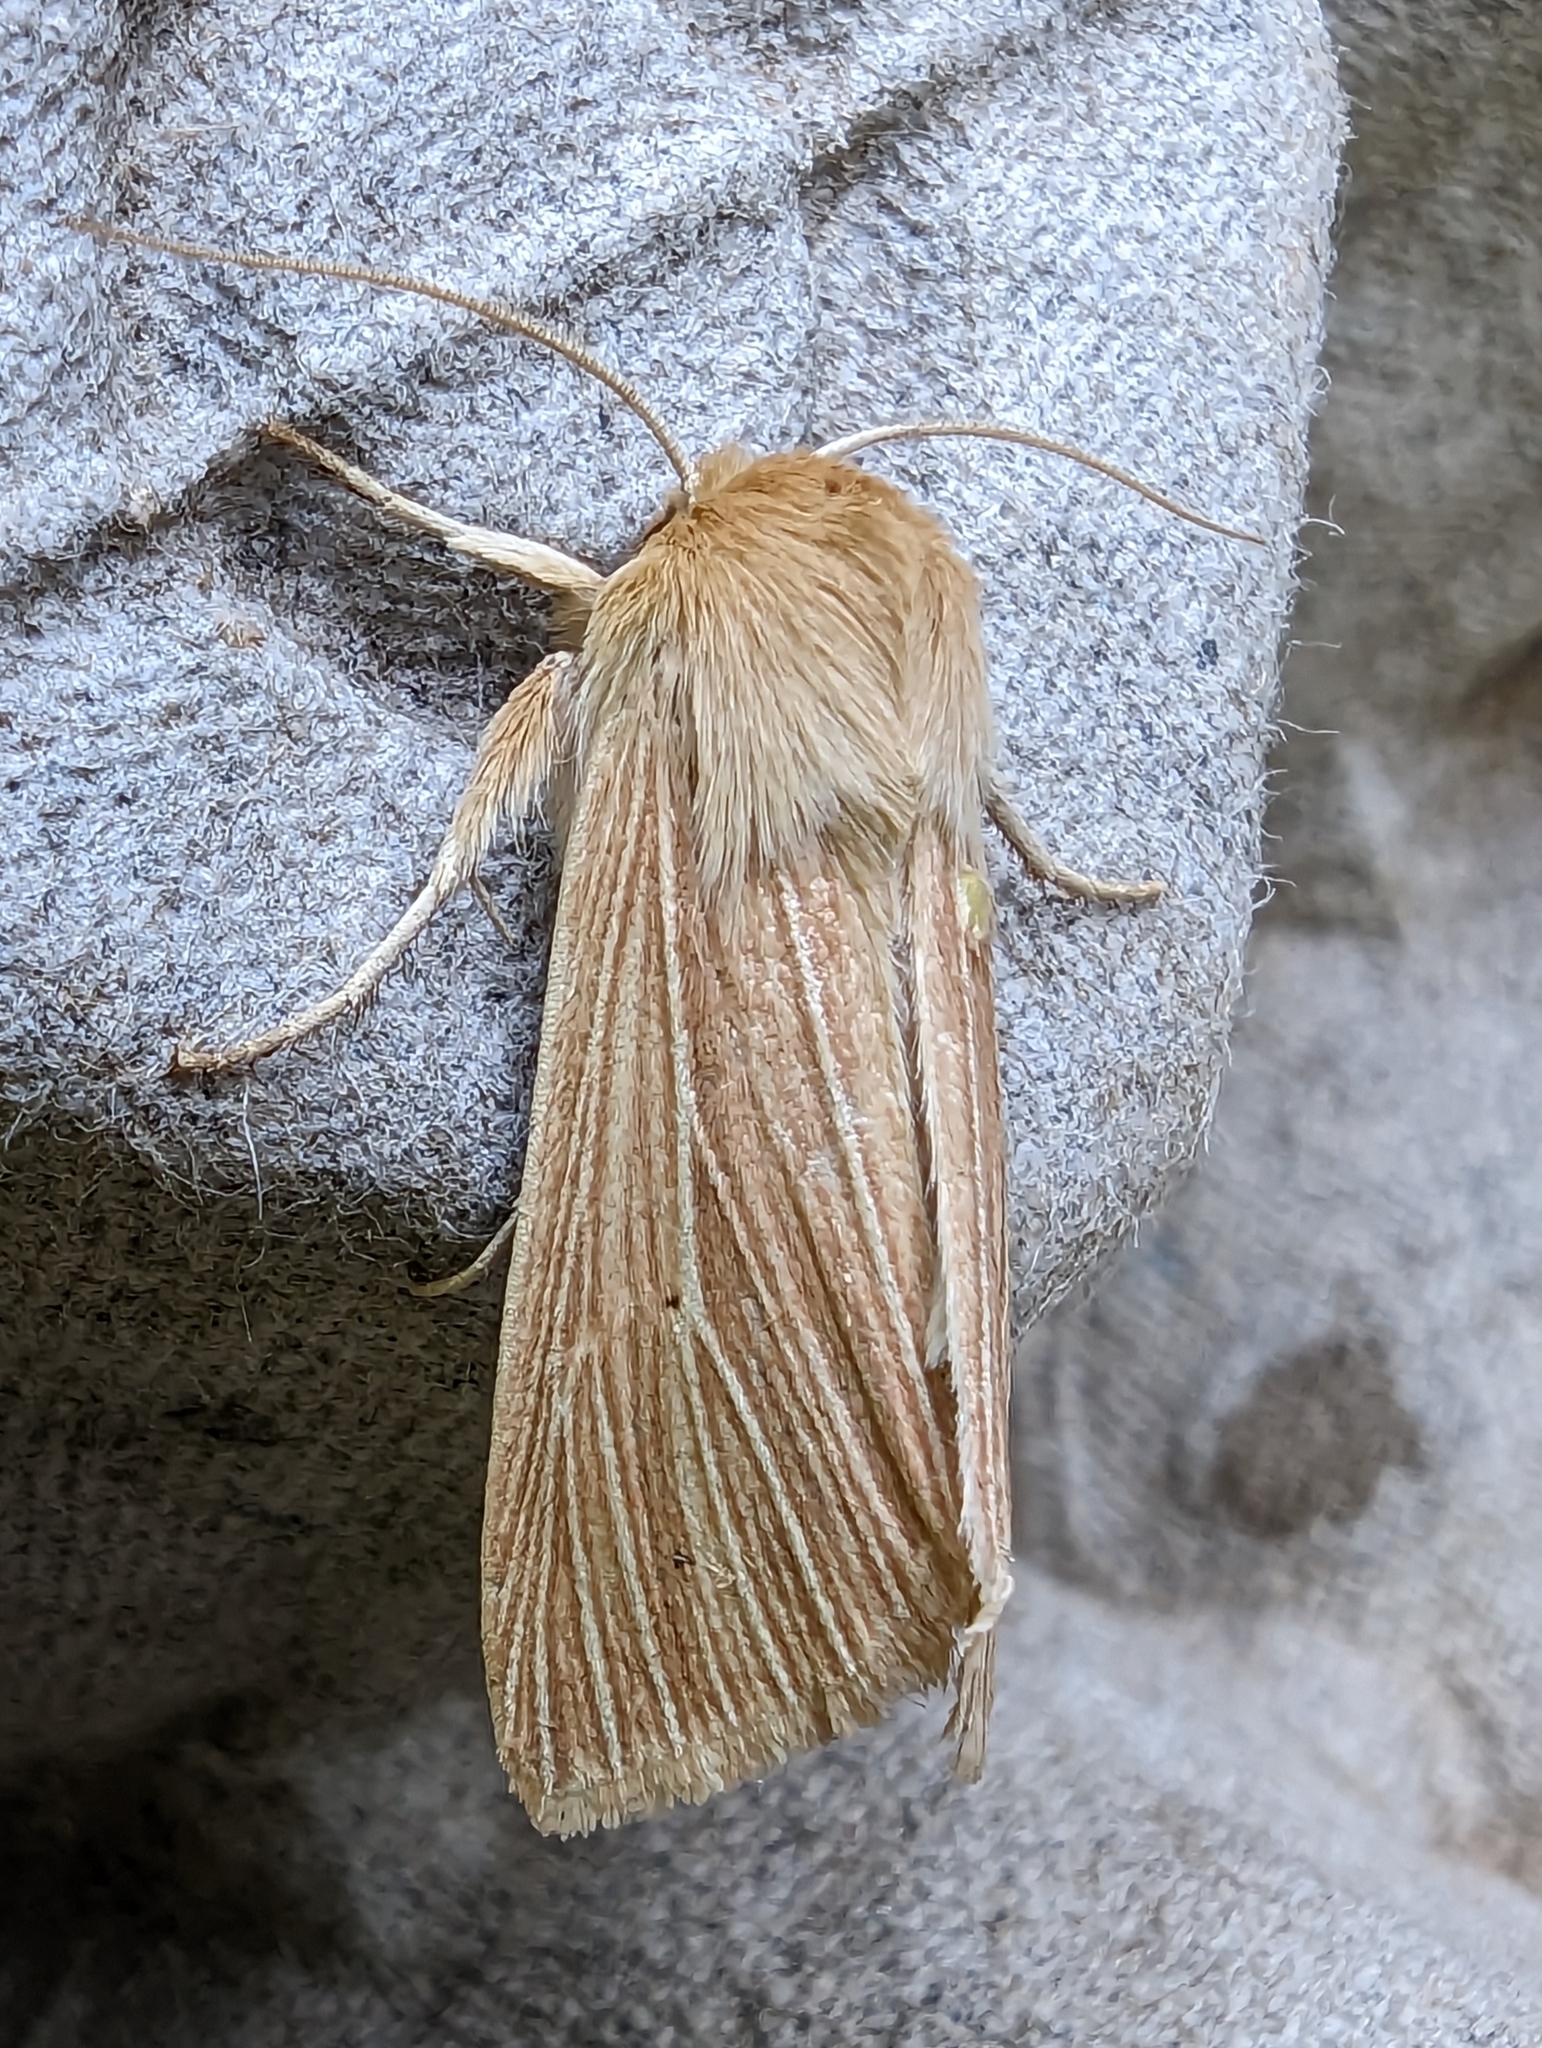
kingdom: Animalia
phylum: Arthropoda
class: Insecta
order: Lepidoptera
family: Noctuidae
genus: Mythimna
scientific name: Mythimna pallens
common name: Common wainscot
